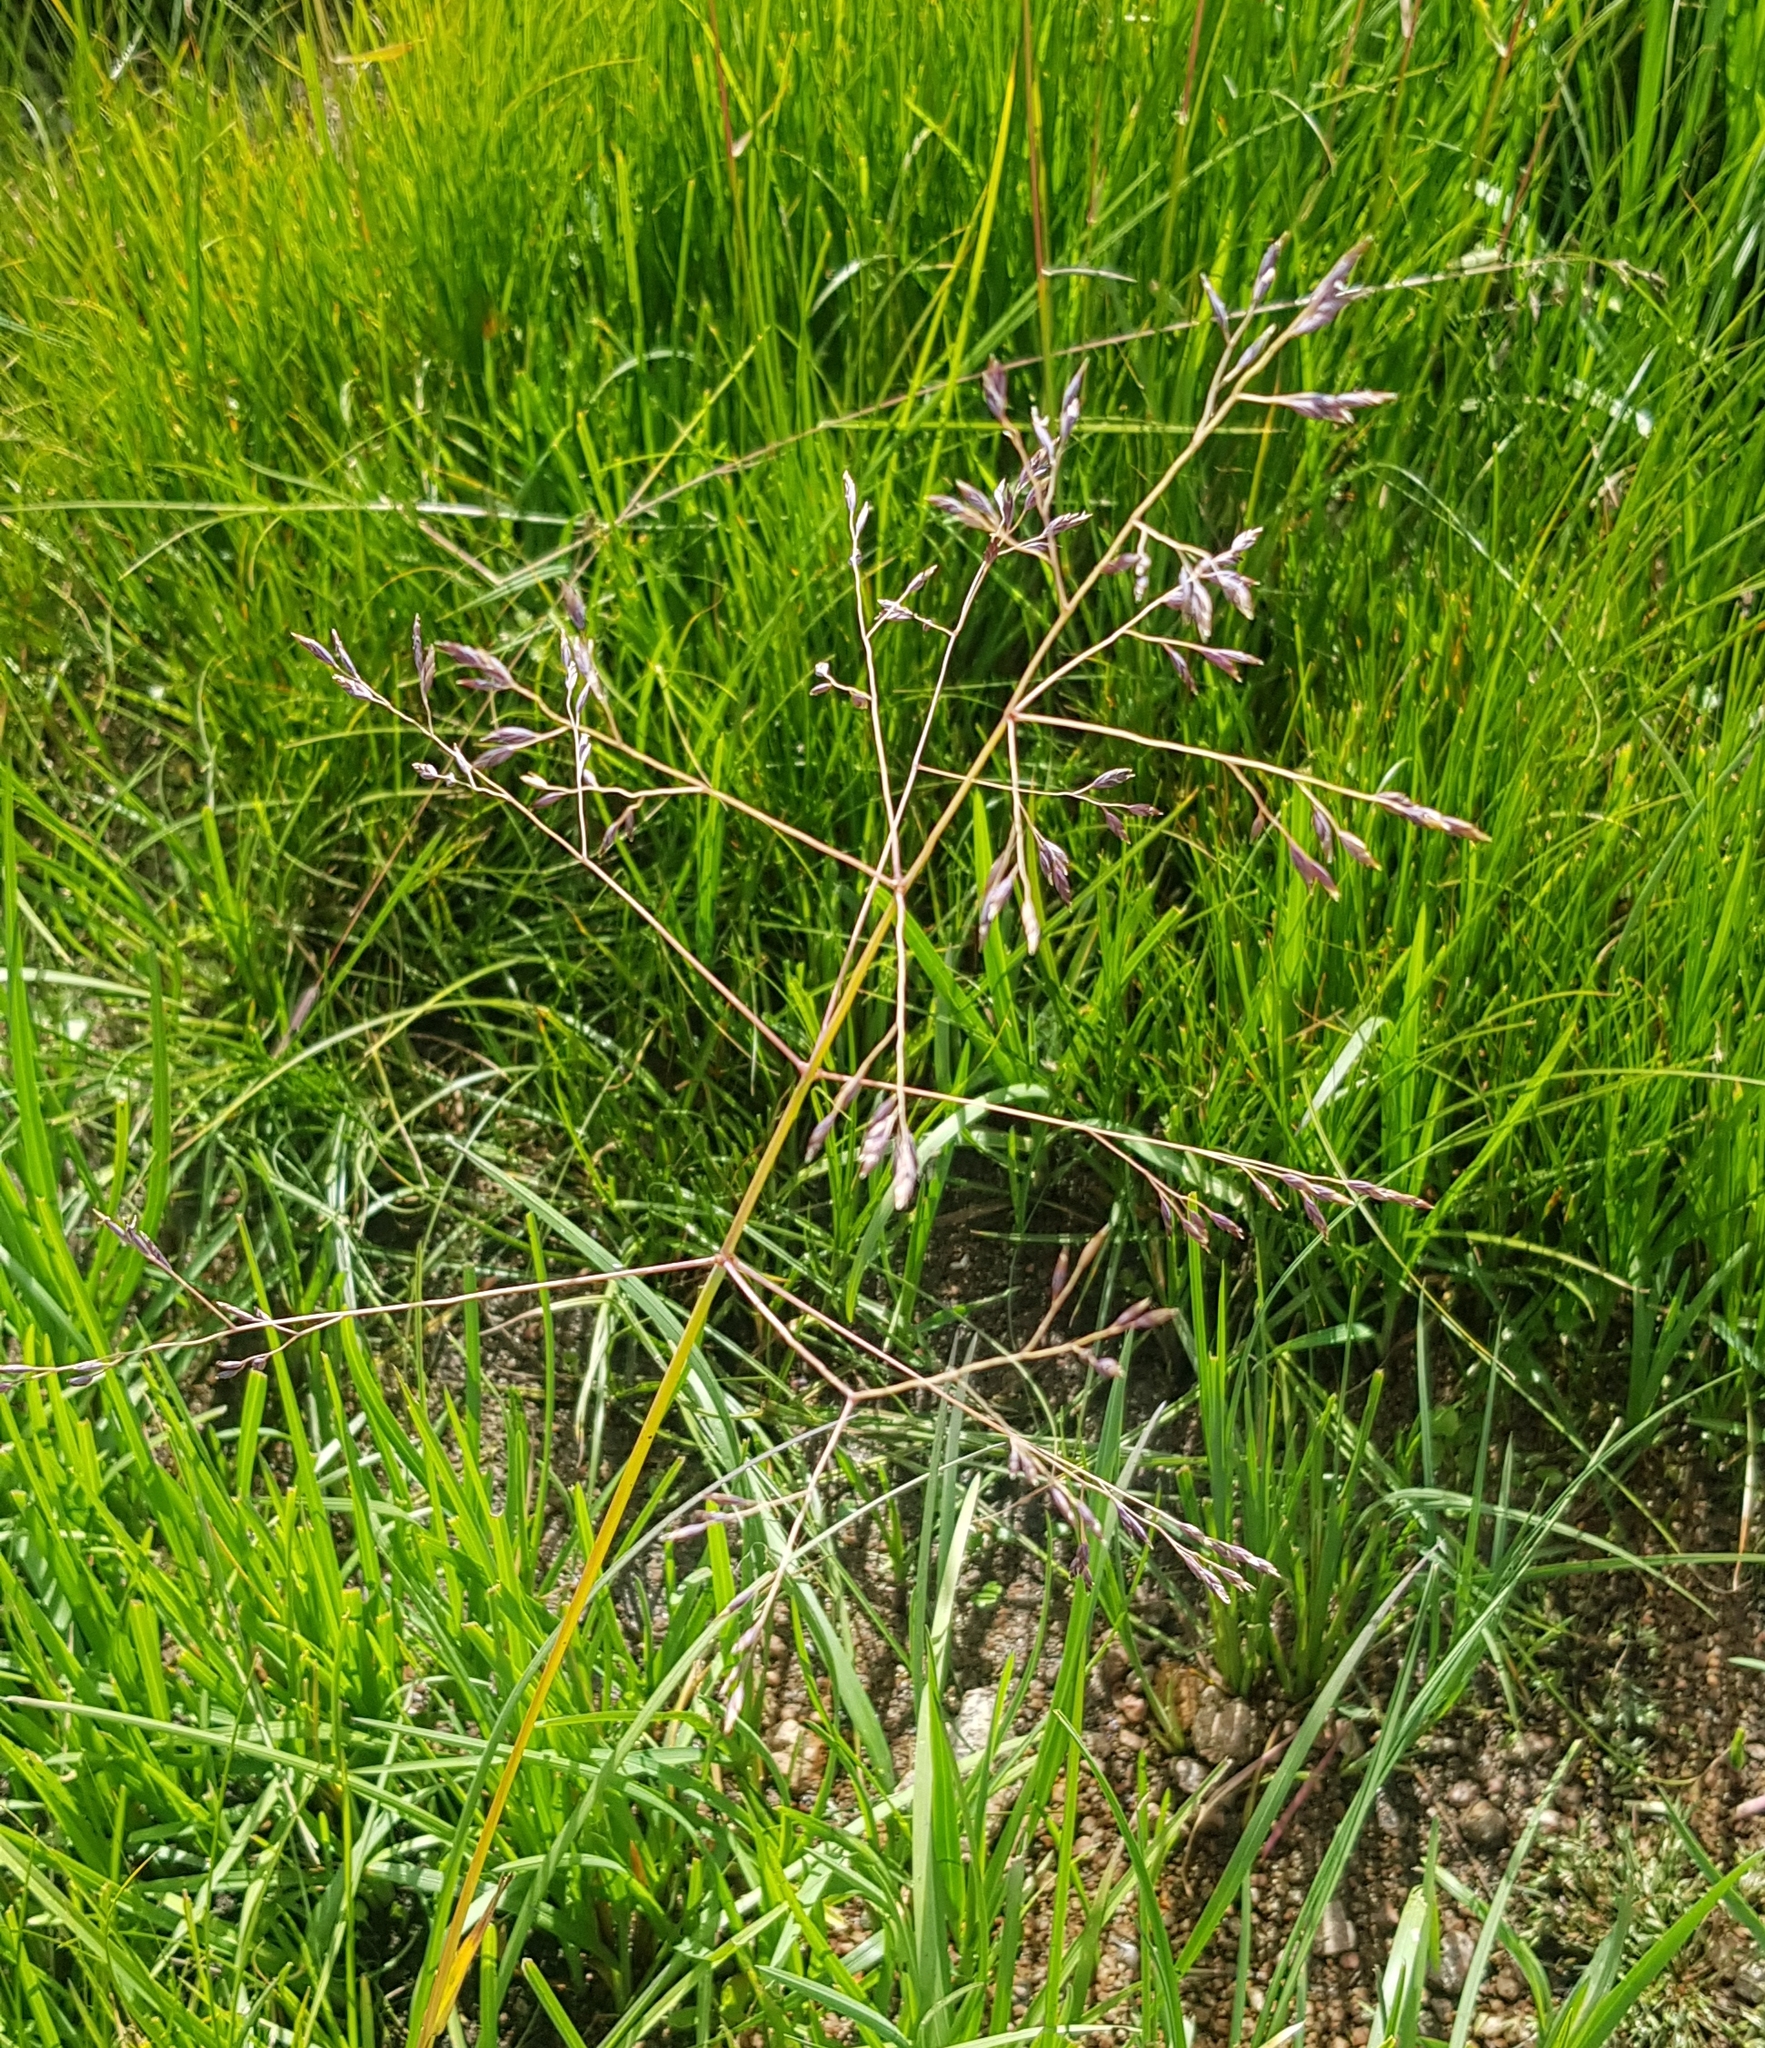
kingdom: Plantae
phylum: Tracheophyta
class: Liliopsida
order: Poales
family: Poaceae
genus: Poa
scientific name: Poa subfastigiata
